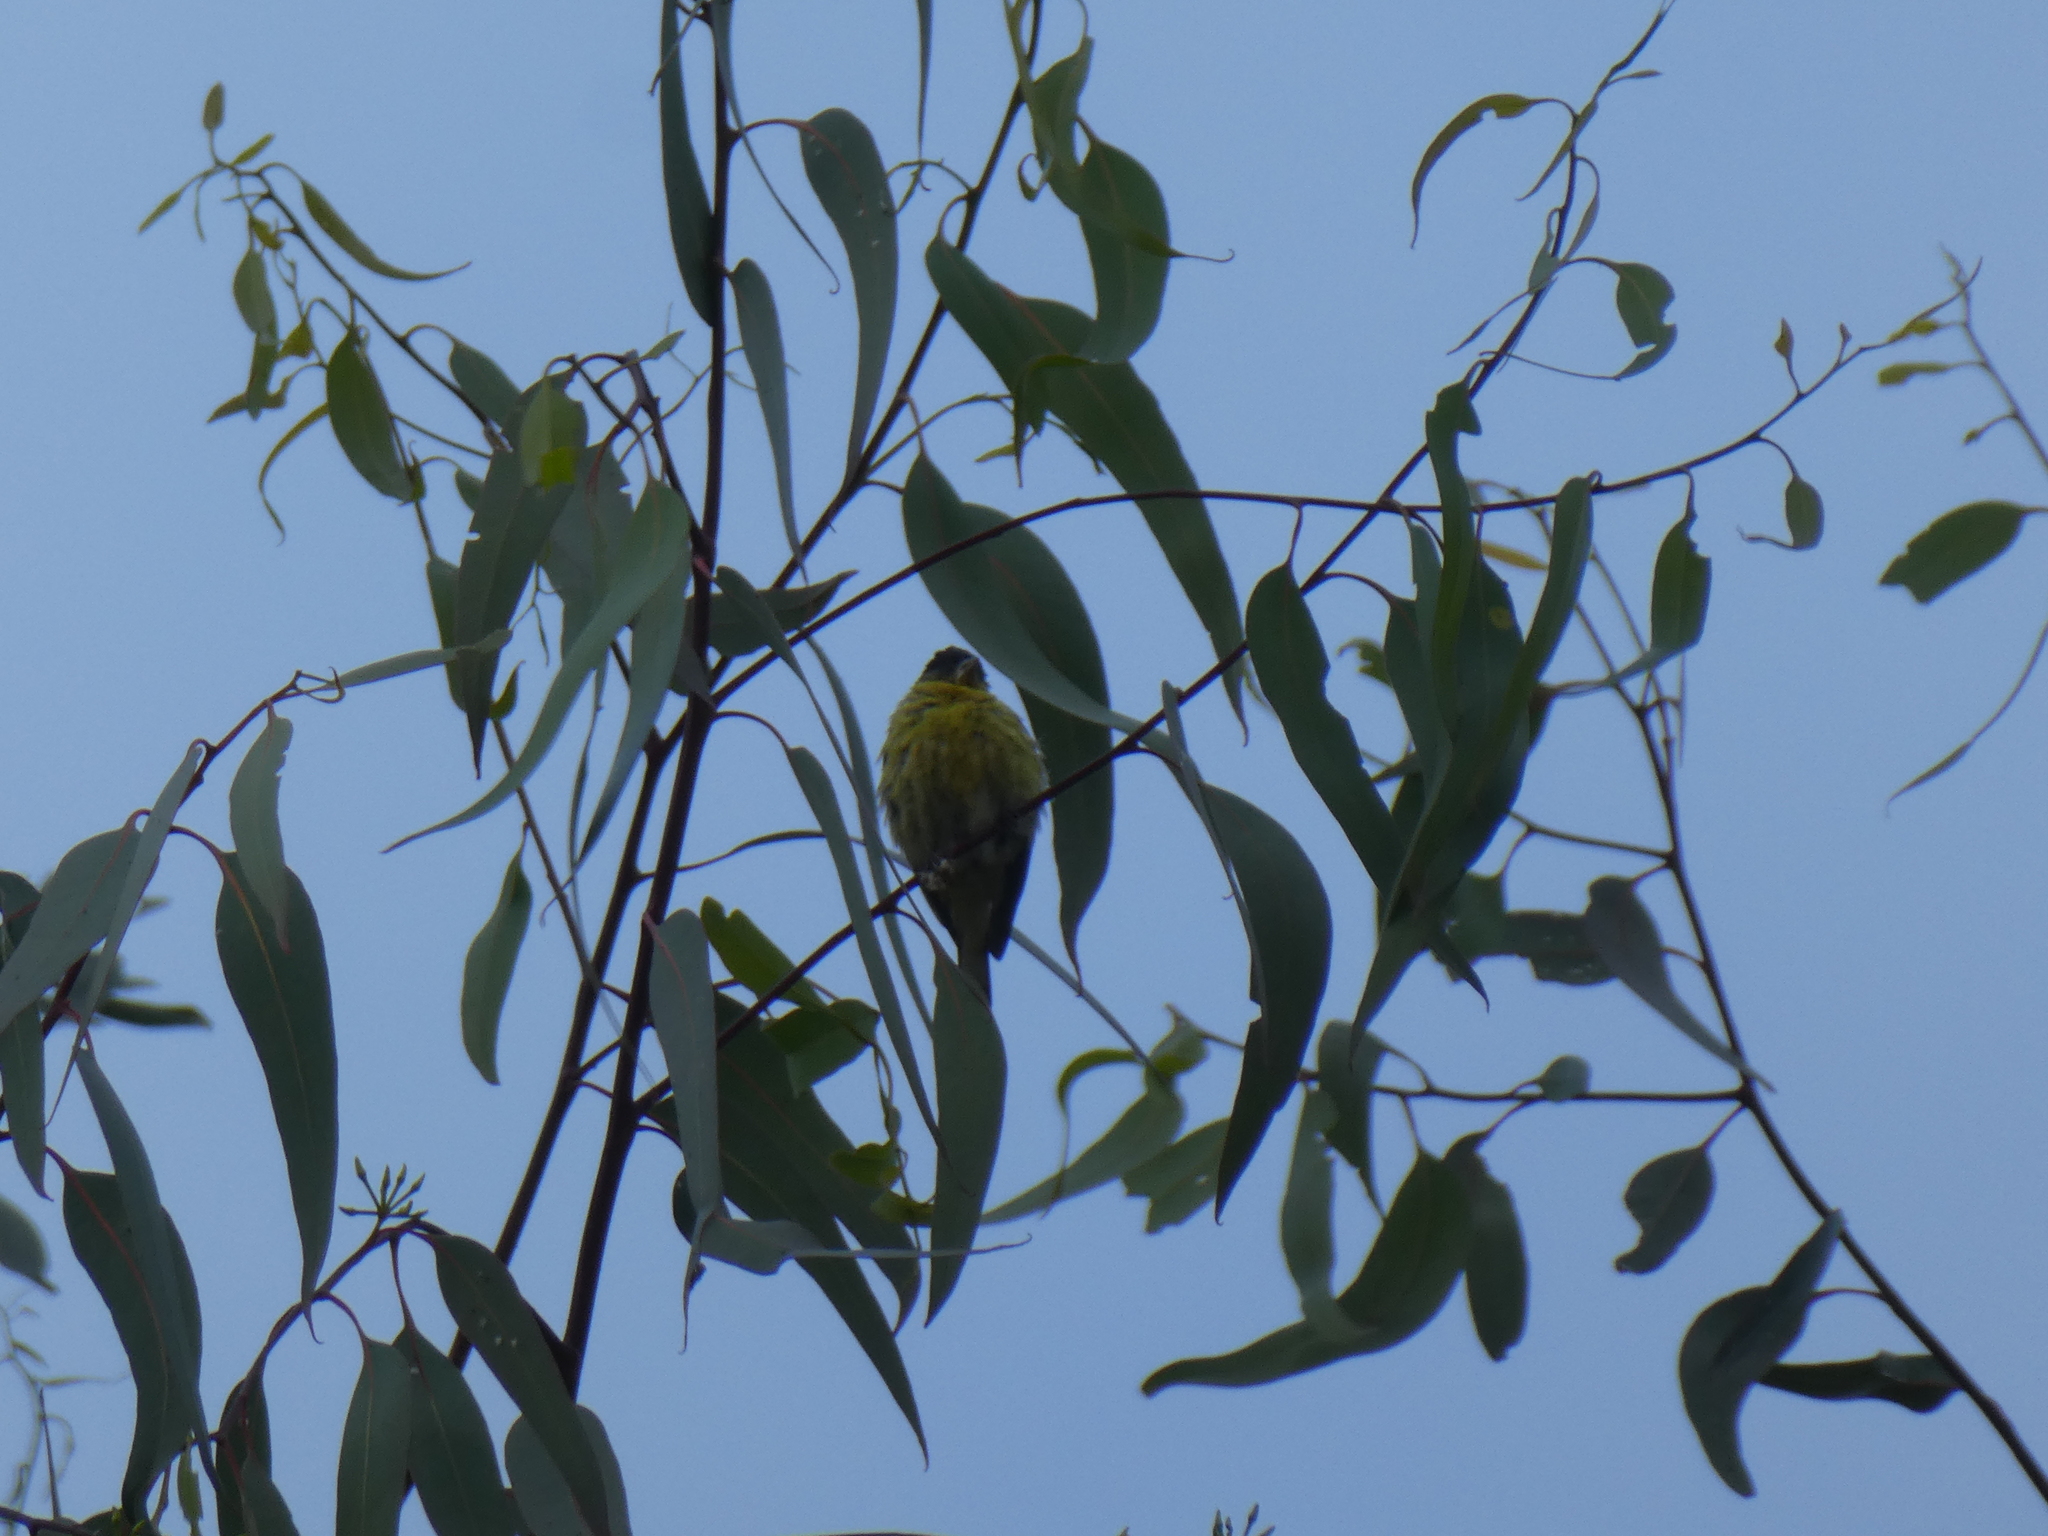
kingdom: Animalia
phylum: Chordata
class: Aves
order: Passeriformes
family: Fringillidae
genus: Spinus
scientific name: Spinus psaltria
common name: Lesser goldfinch
